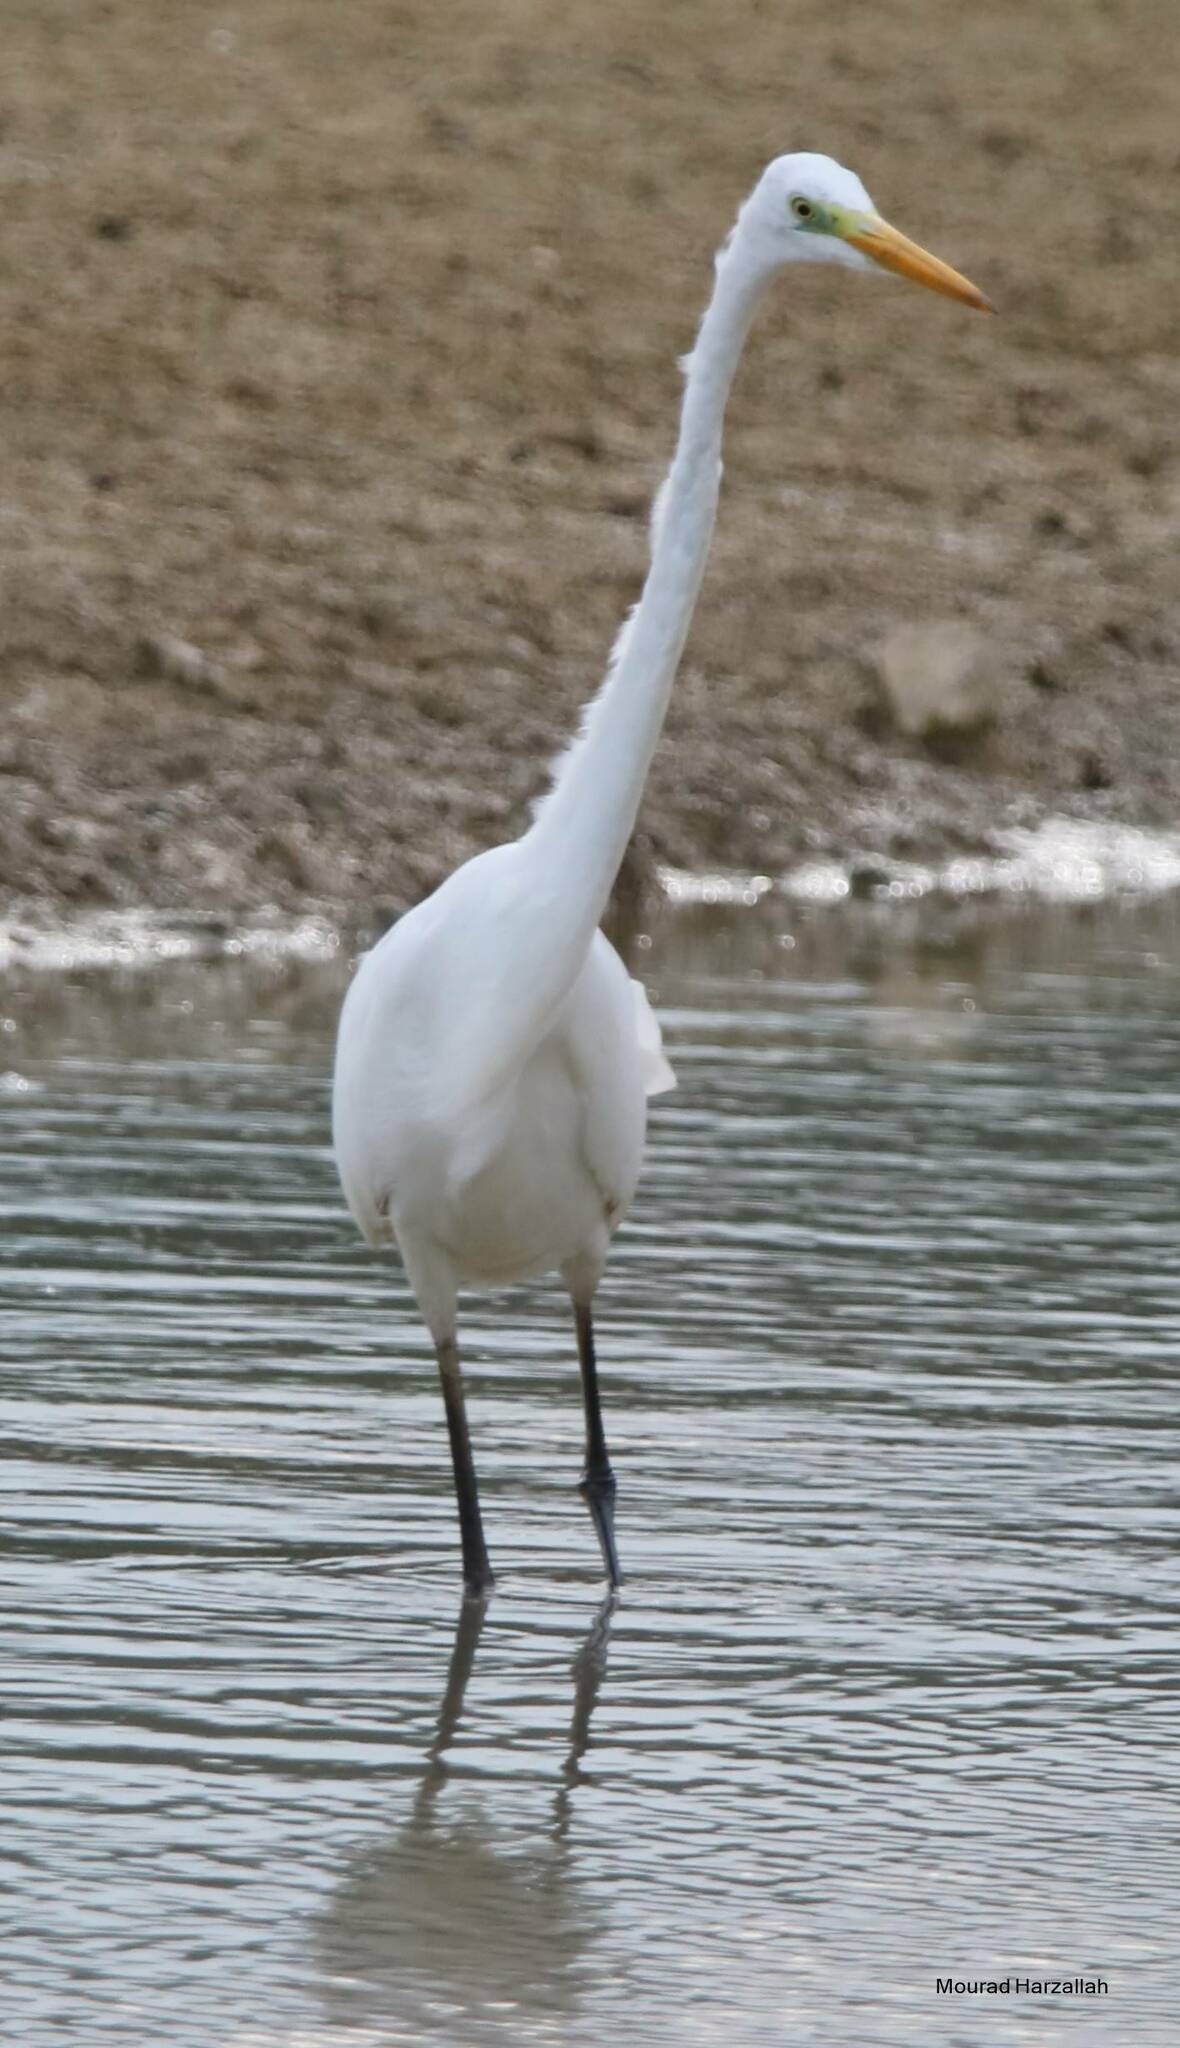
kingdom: Animalia
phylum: Chordata
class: Aves
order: Pelecaniformes
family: Ardeidae
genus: Ardea
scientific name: Ardea alba
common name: Great egret
